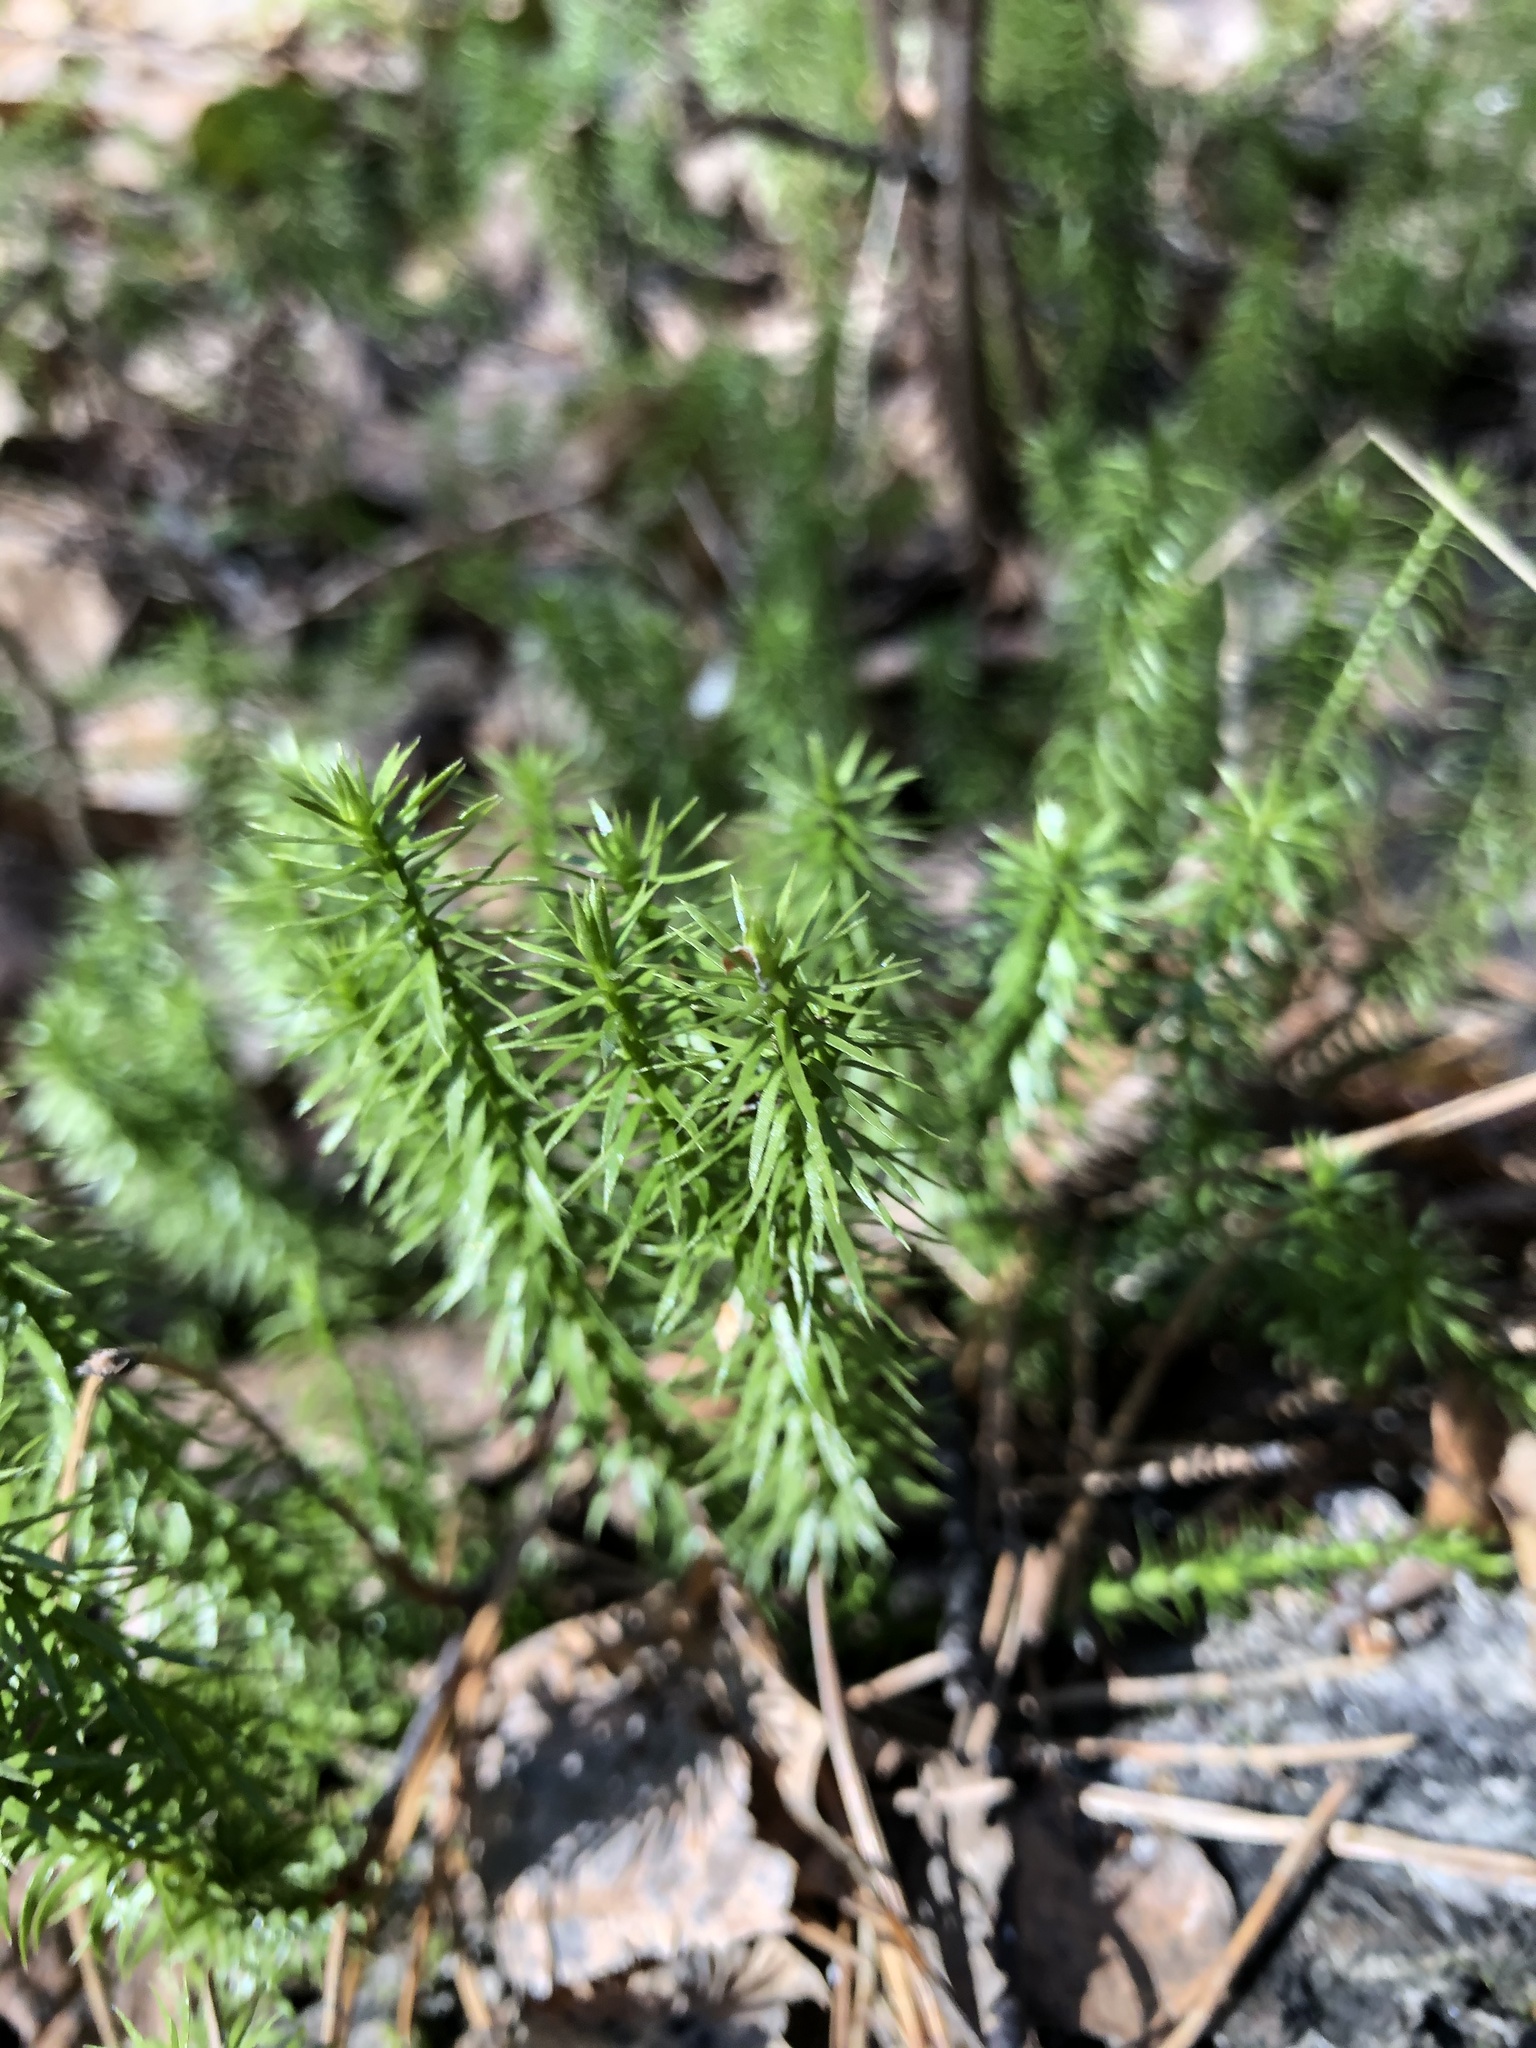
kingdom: Plantae
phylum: Tracheophyta
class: Lycopodiopsida
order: Lycopodiales
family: Lycopodiaceae
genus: Spinulum
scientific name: Spinulum annotinum
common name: Interrupted club-moss
